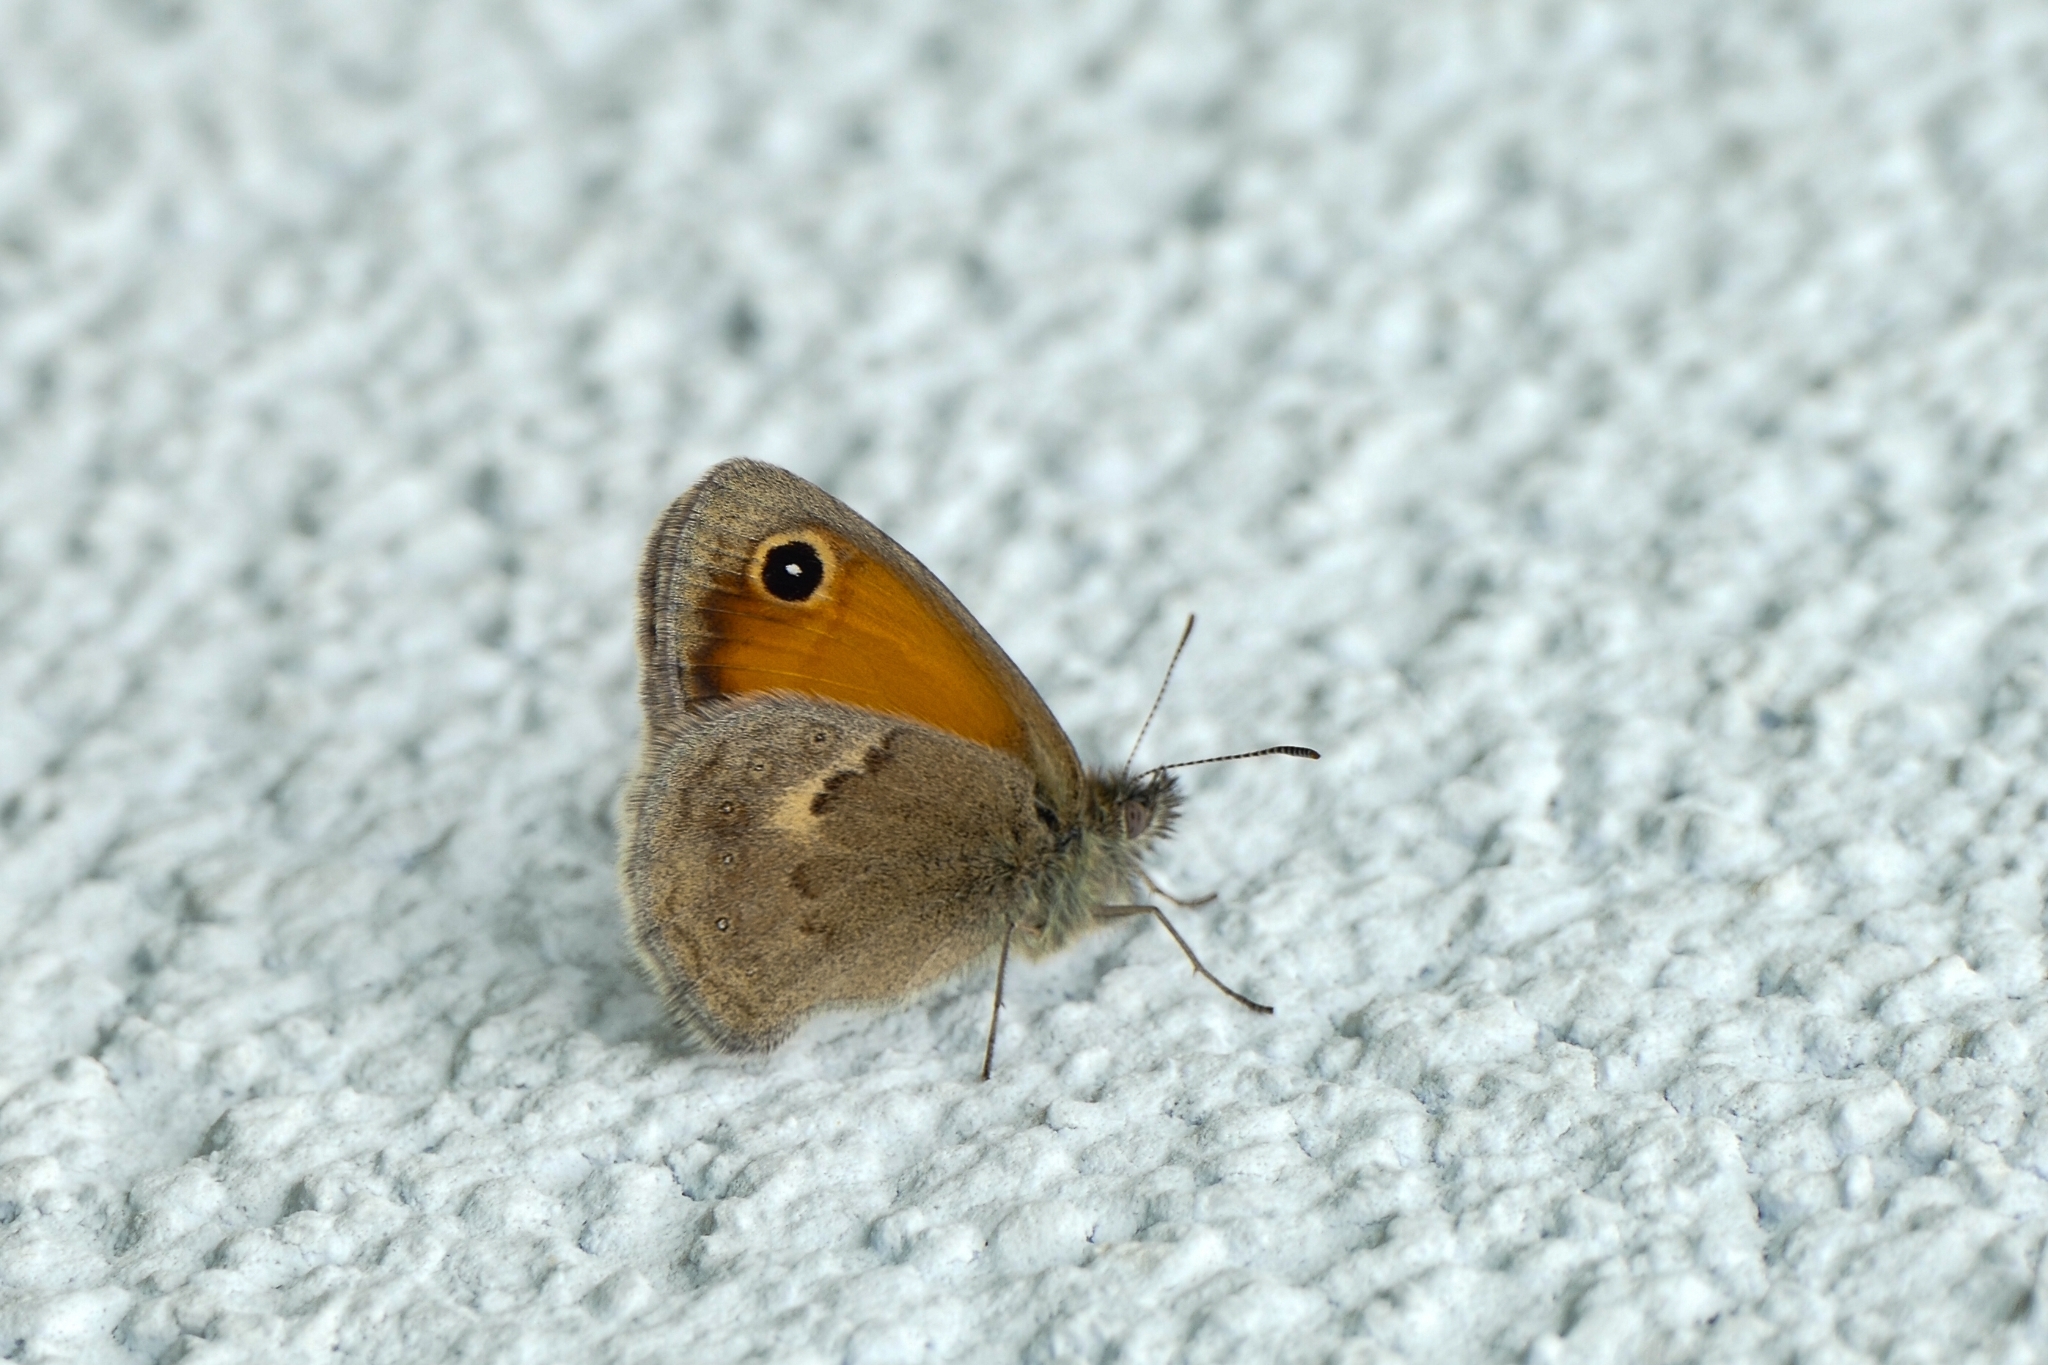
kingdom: Animalia
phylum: Arthropoda
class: Insecta
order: Lepidoptera
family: Nymphalidae
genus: Coenonympha
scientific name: Coenonympha pamphilus
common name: Small heath
